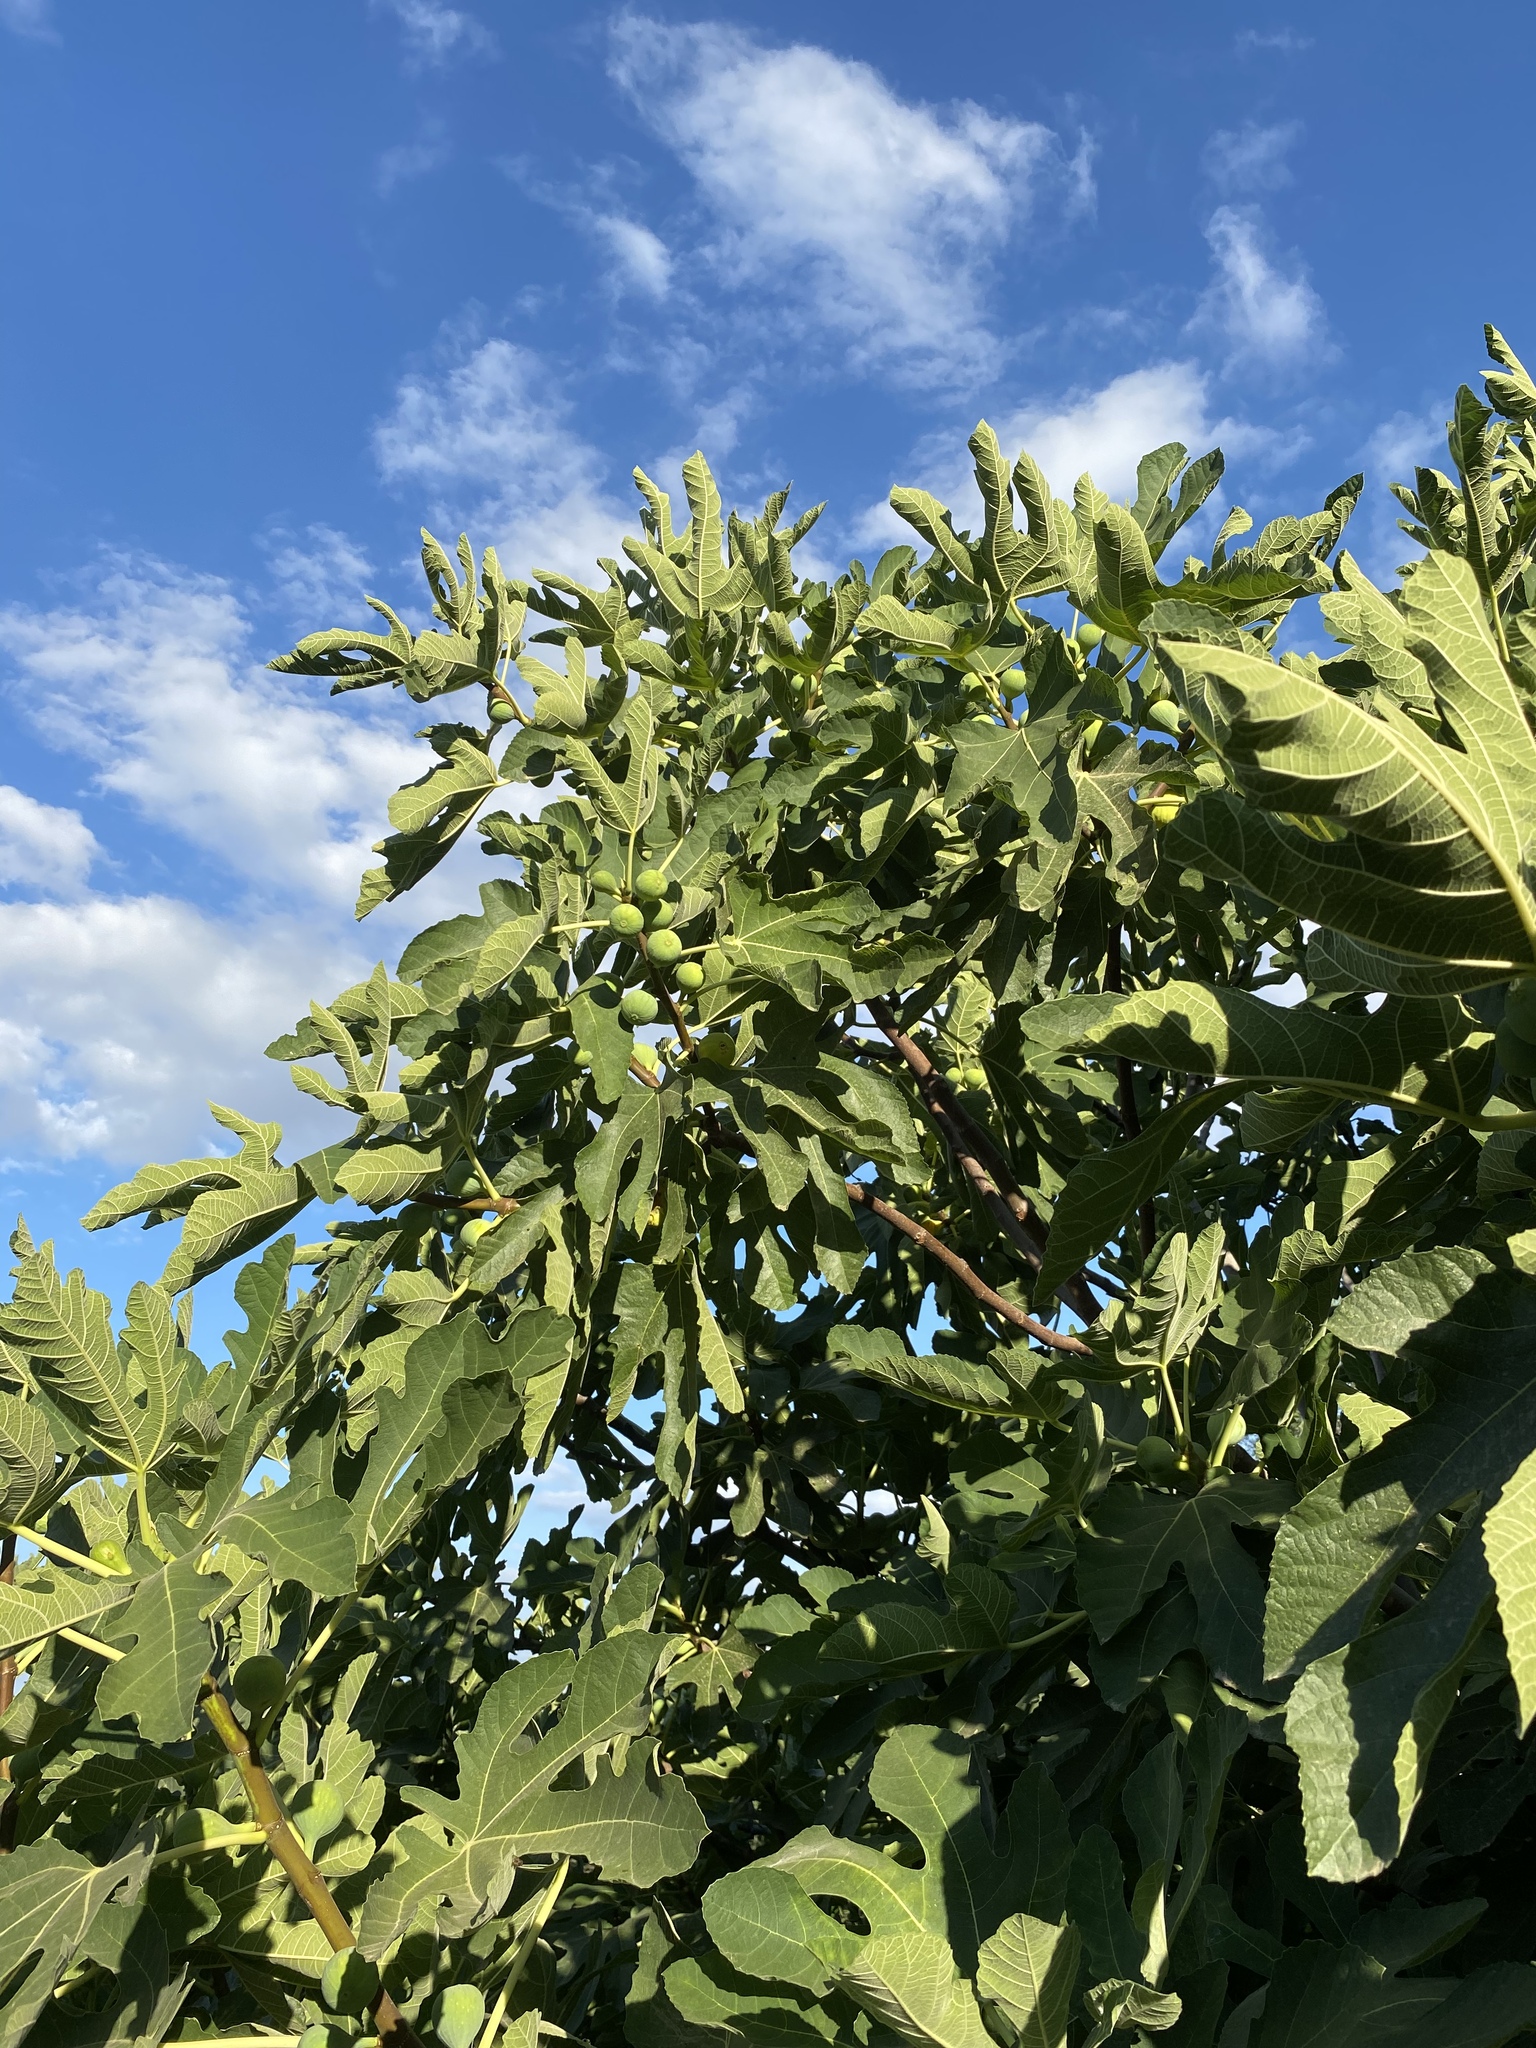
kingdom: Plantae
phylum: Tracheophyta
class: Magnoliopsida
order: Rosales
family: Moraceae
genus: Ficus
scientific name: Ficus carica
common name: Fig
